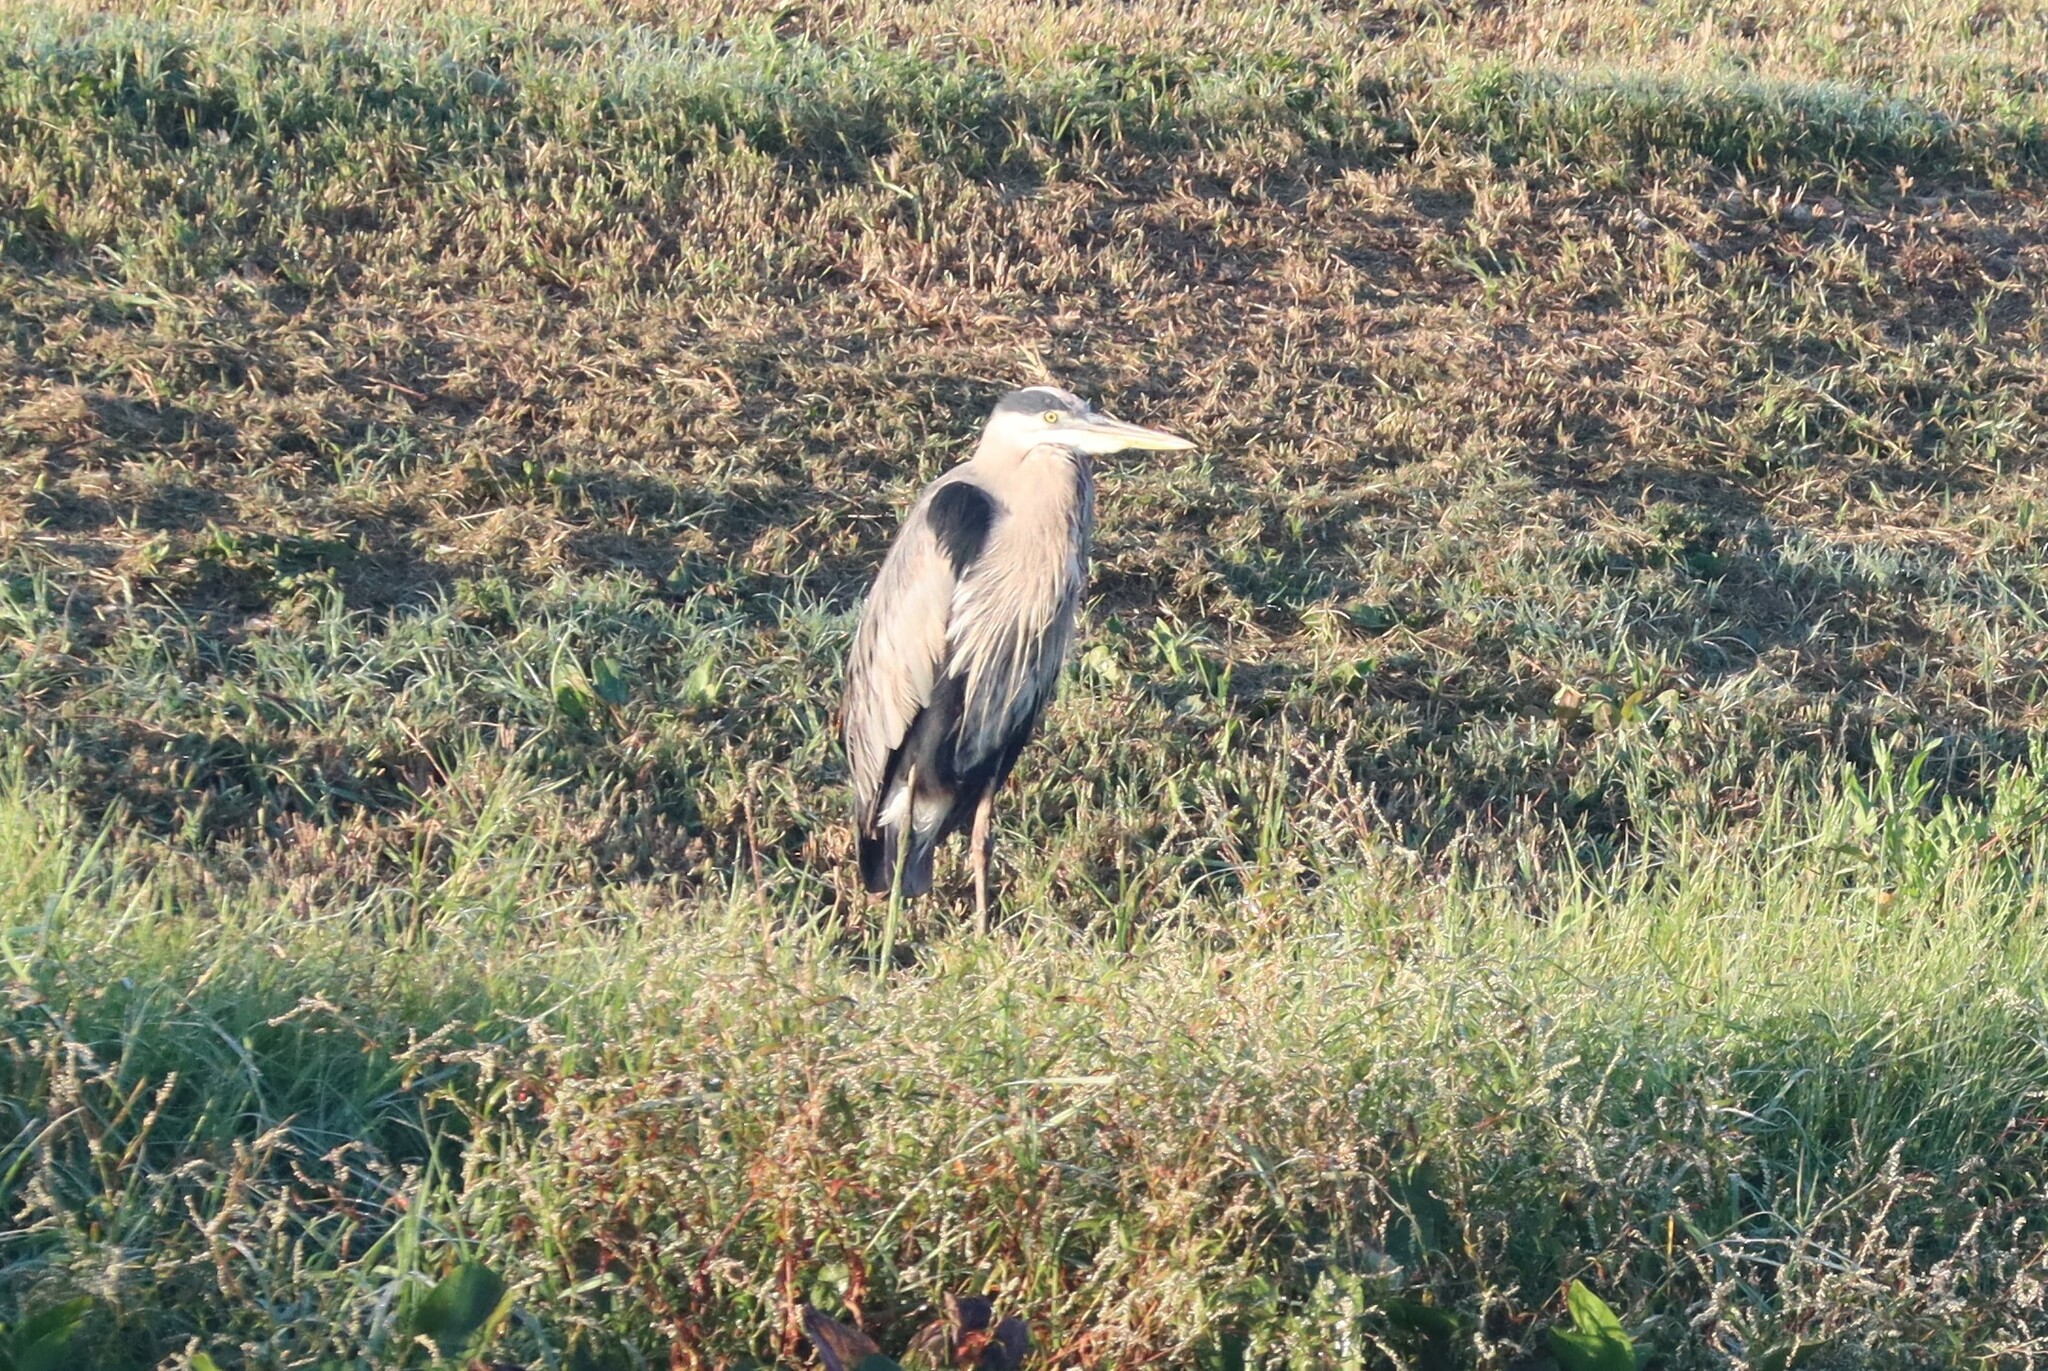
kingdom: Animalia
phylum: Chordata
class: Aves
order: Pelecaniformes
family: Ardeidae
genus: Ardea
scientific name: Ardea herodias
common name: Great blue heron
